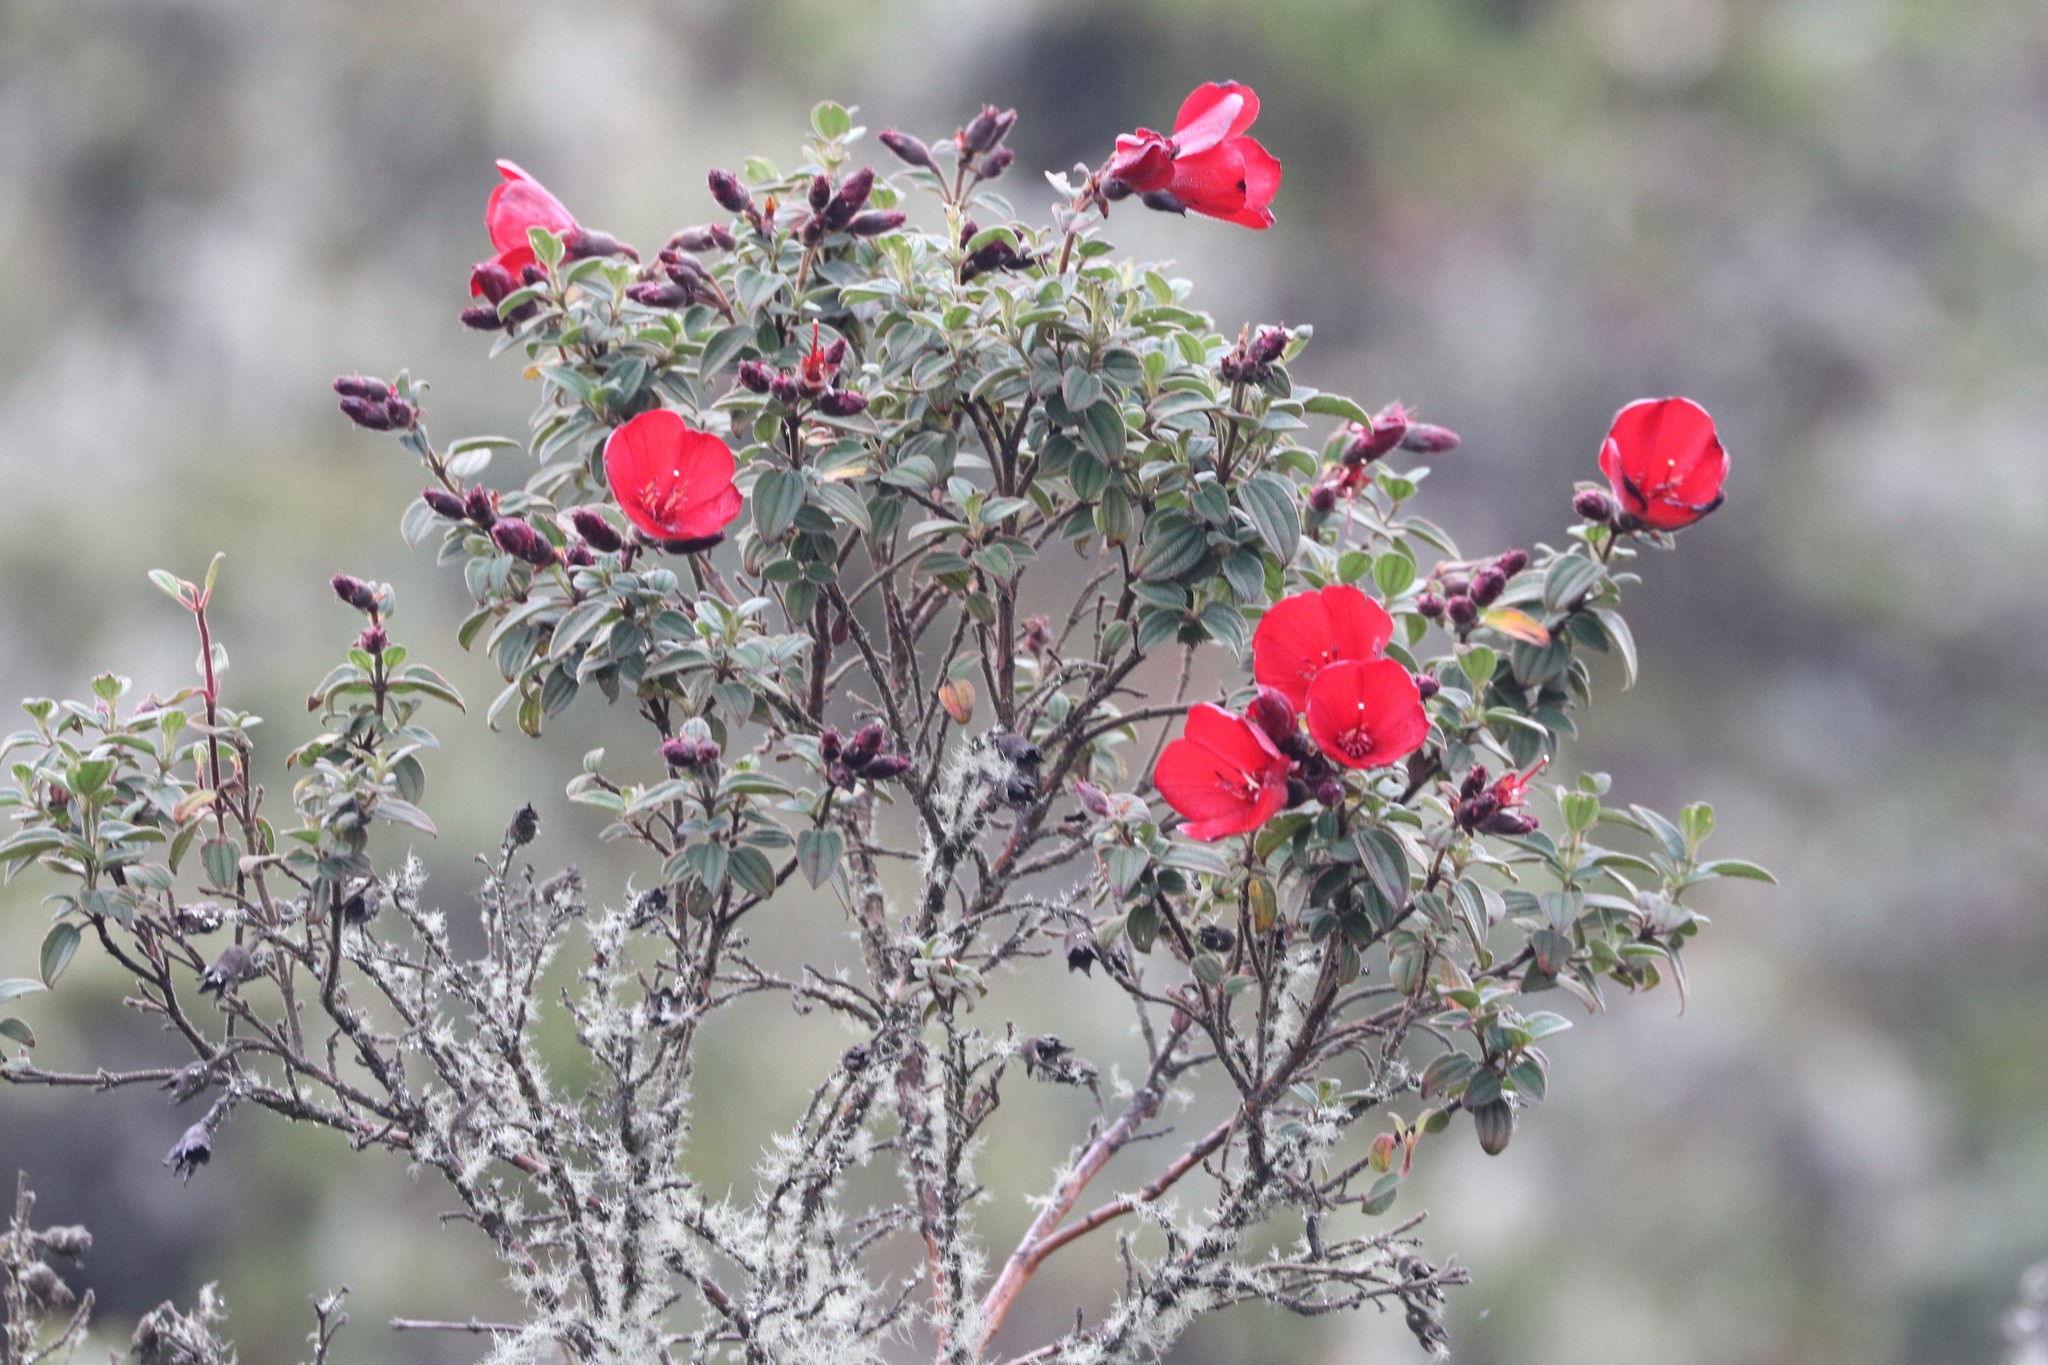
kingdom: Plantae
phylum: Tracheophyta
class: Magnoliopsida
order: Myrtales
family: Melastomataceae
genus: Chaetogastra
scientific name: Chaetogastra grossa
